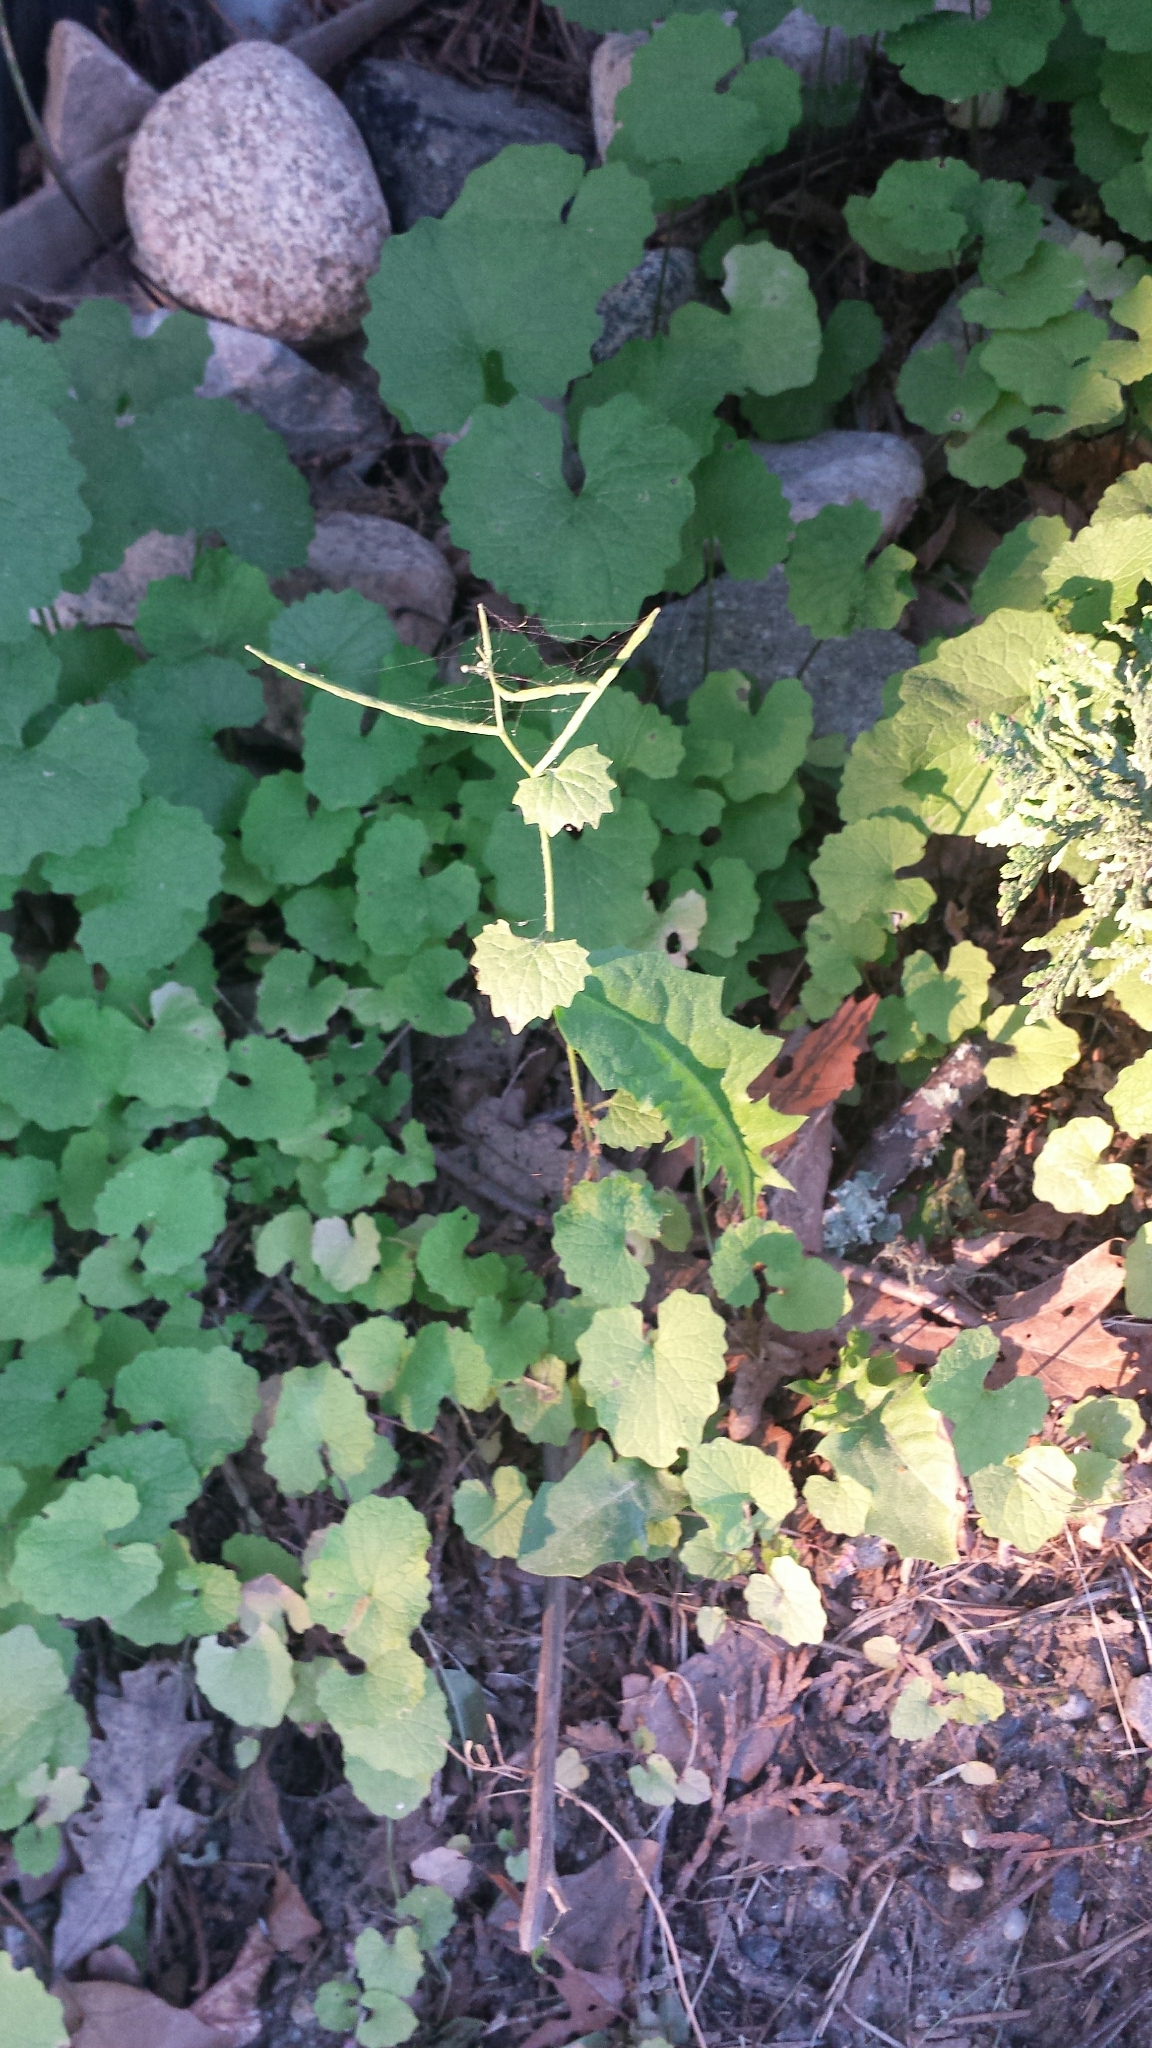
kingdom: Plantae
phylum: Tracheophyta
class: Magnoliopsida
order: Brassicales
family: Brassicaceae
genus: Alliaria
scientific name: Alliaria petiolata
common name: Garlic mustard
